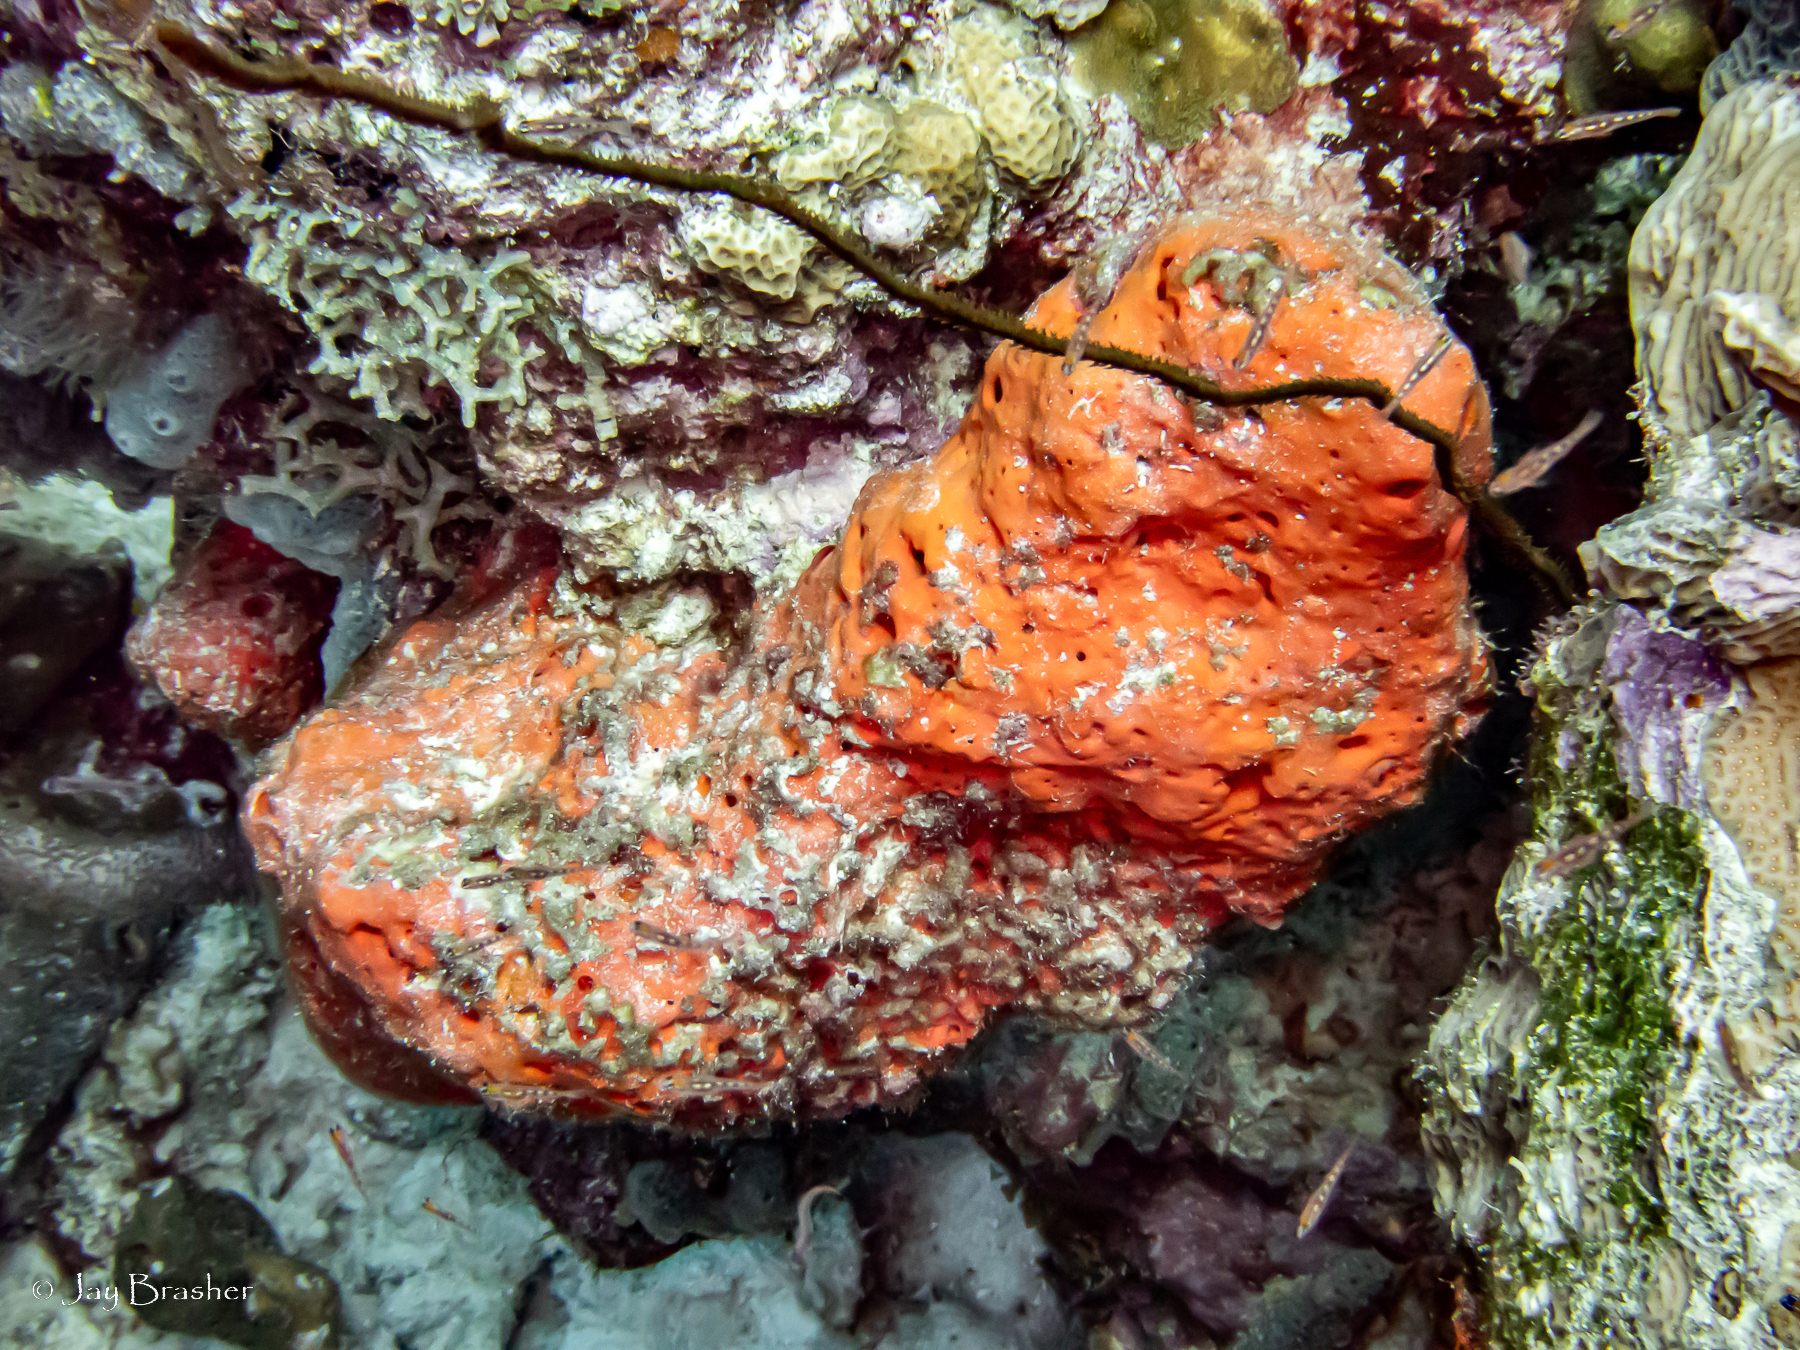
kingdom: Animalia
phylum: Porifera
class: Demospongiae
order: Agelasida
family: Agelasidae
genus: Agelas
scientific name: Agelas clathrodes
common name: Orange elephant ear sponge
